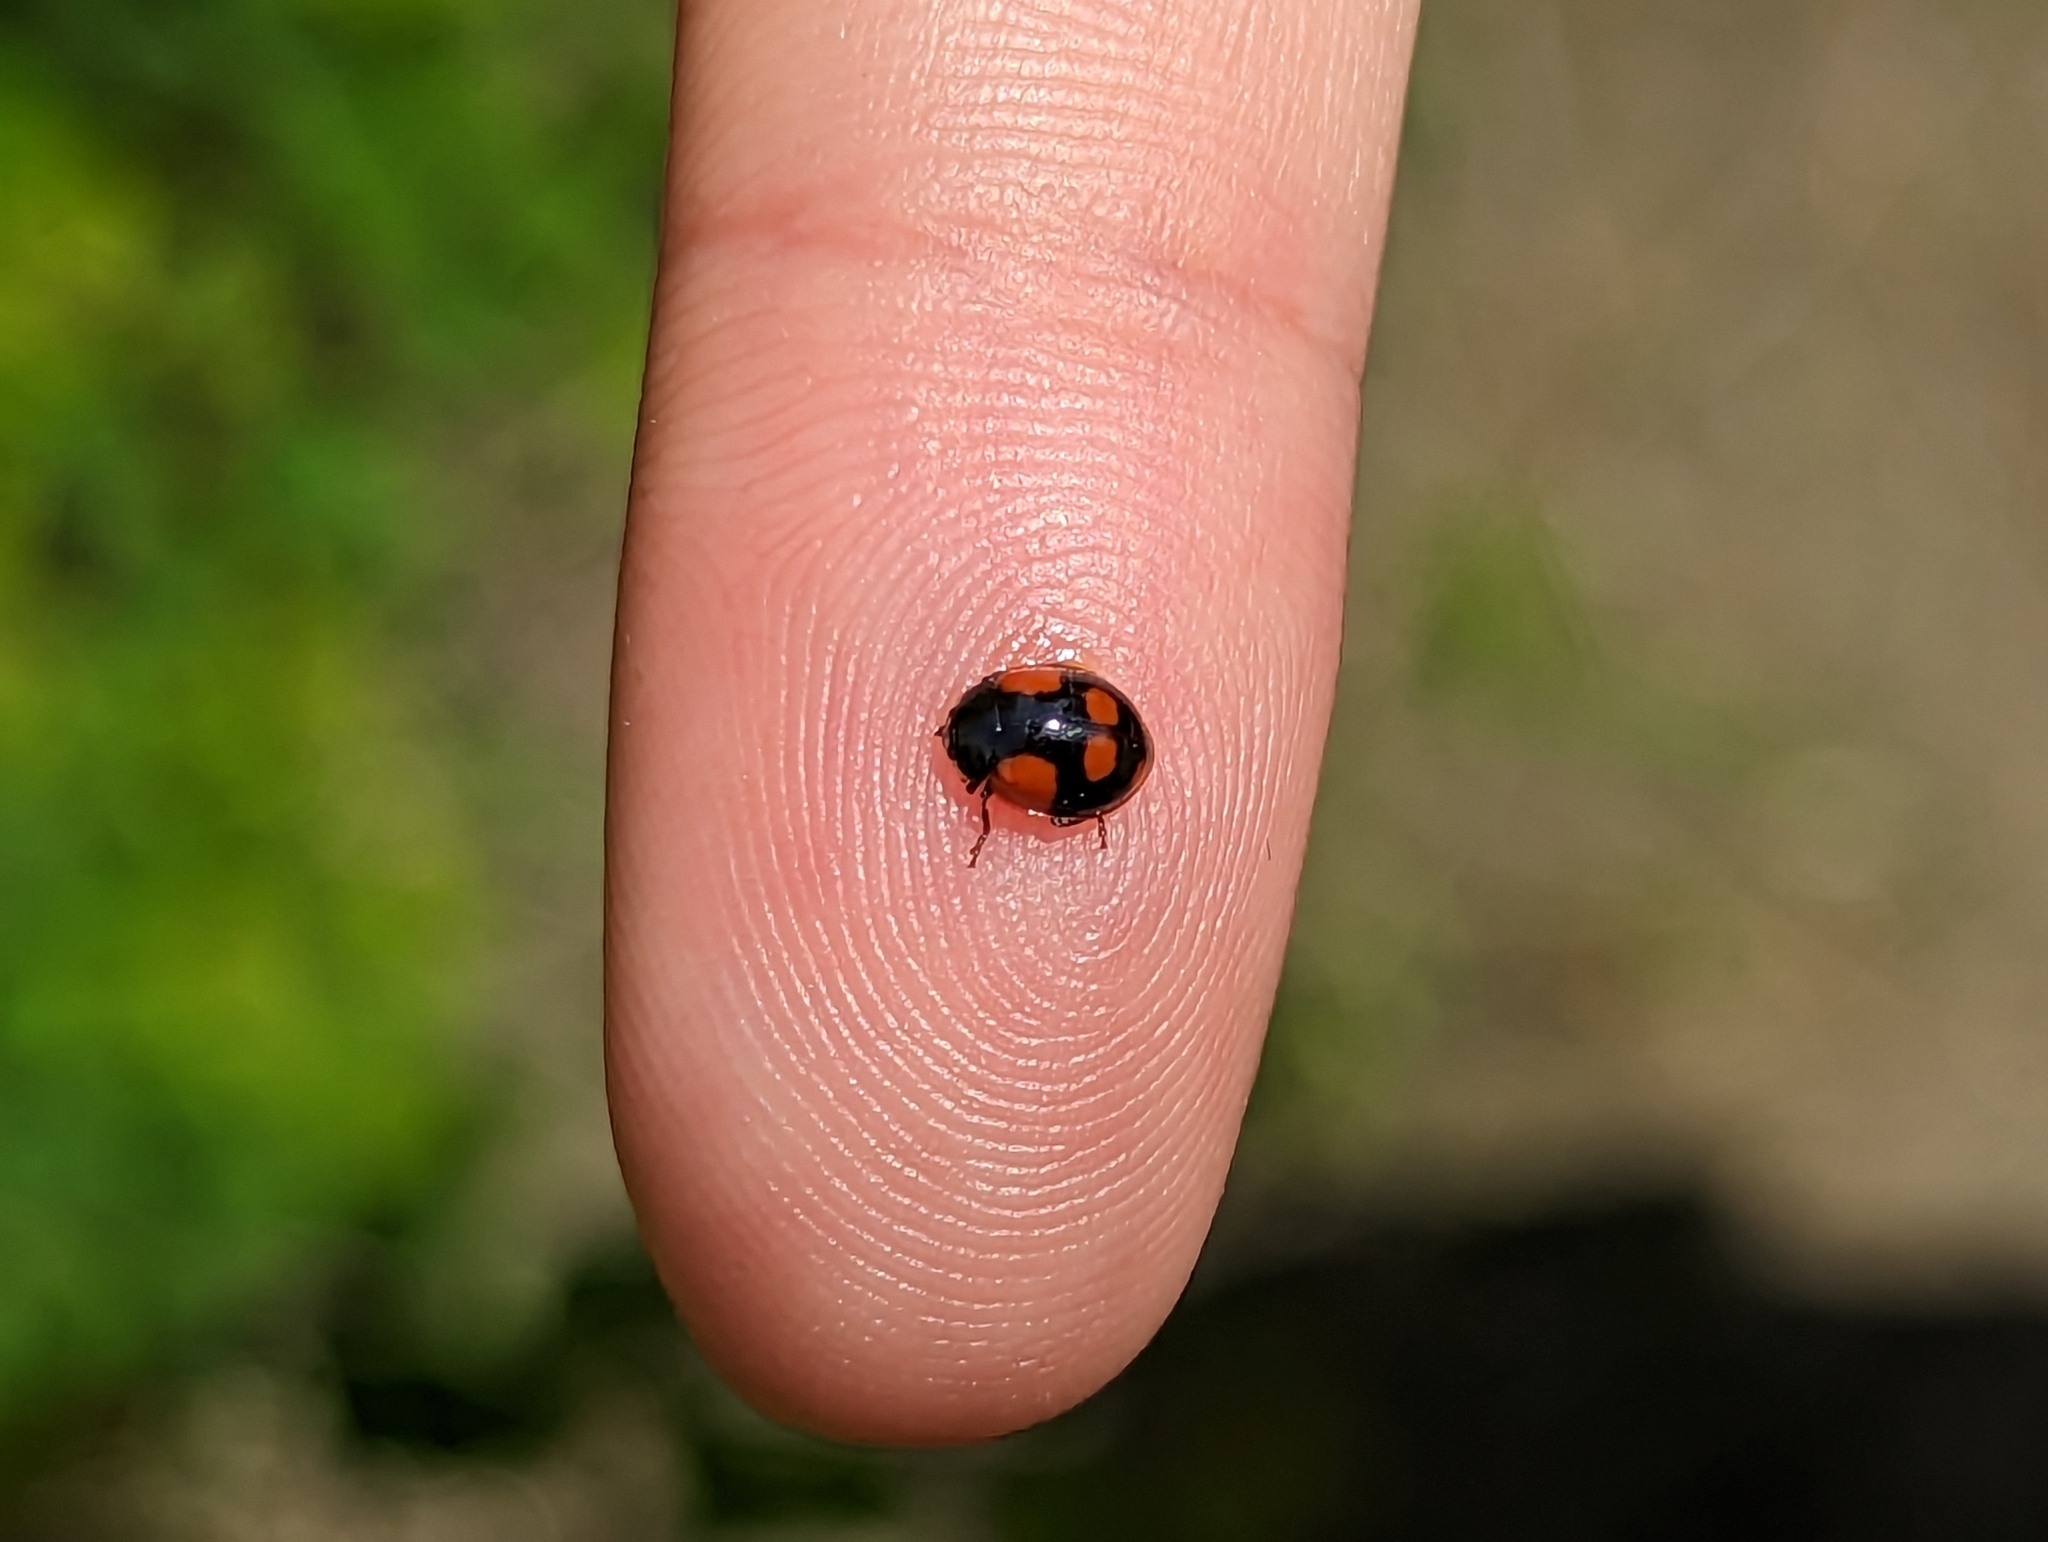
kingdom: Animalia
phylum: Arthropoda
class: Insecta
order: Coleoptera
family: Coccinellidae
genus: Adalia
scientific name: Adalia bipunctata
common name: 2-spot ladybird
